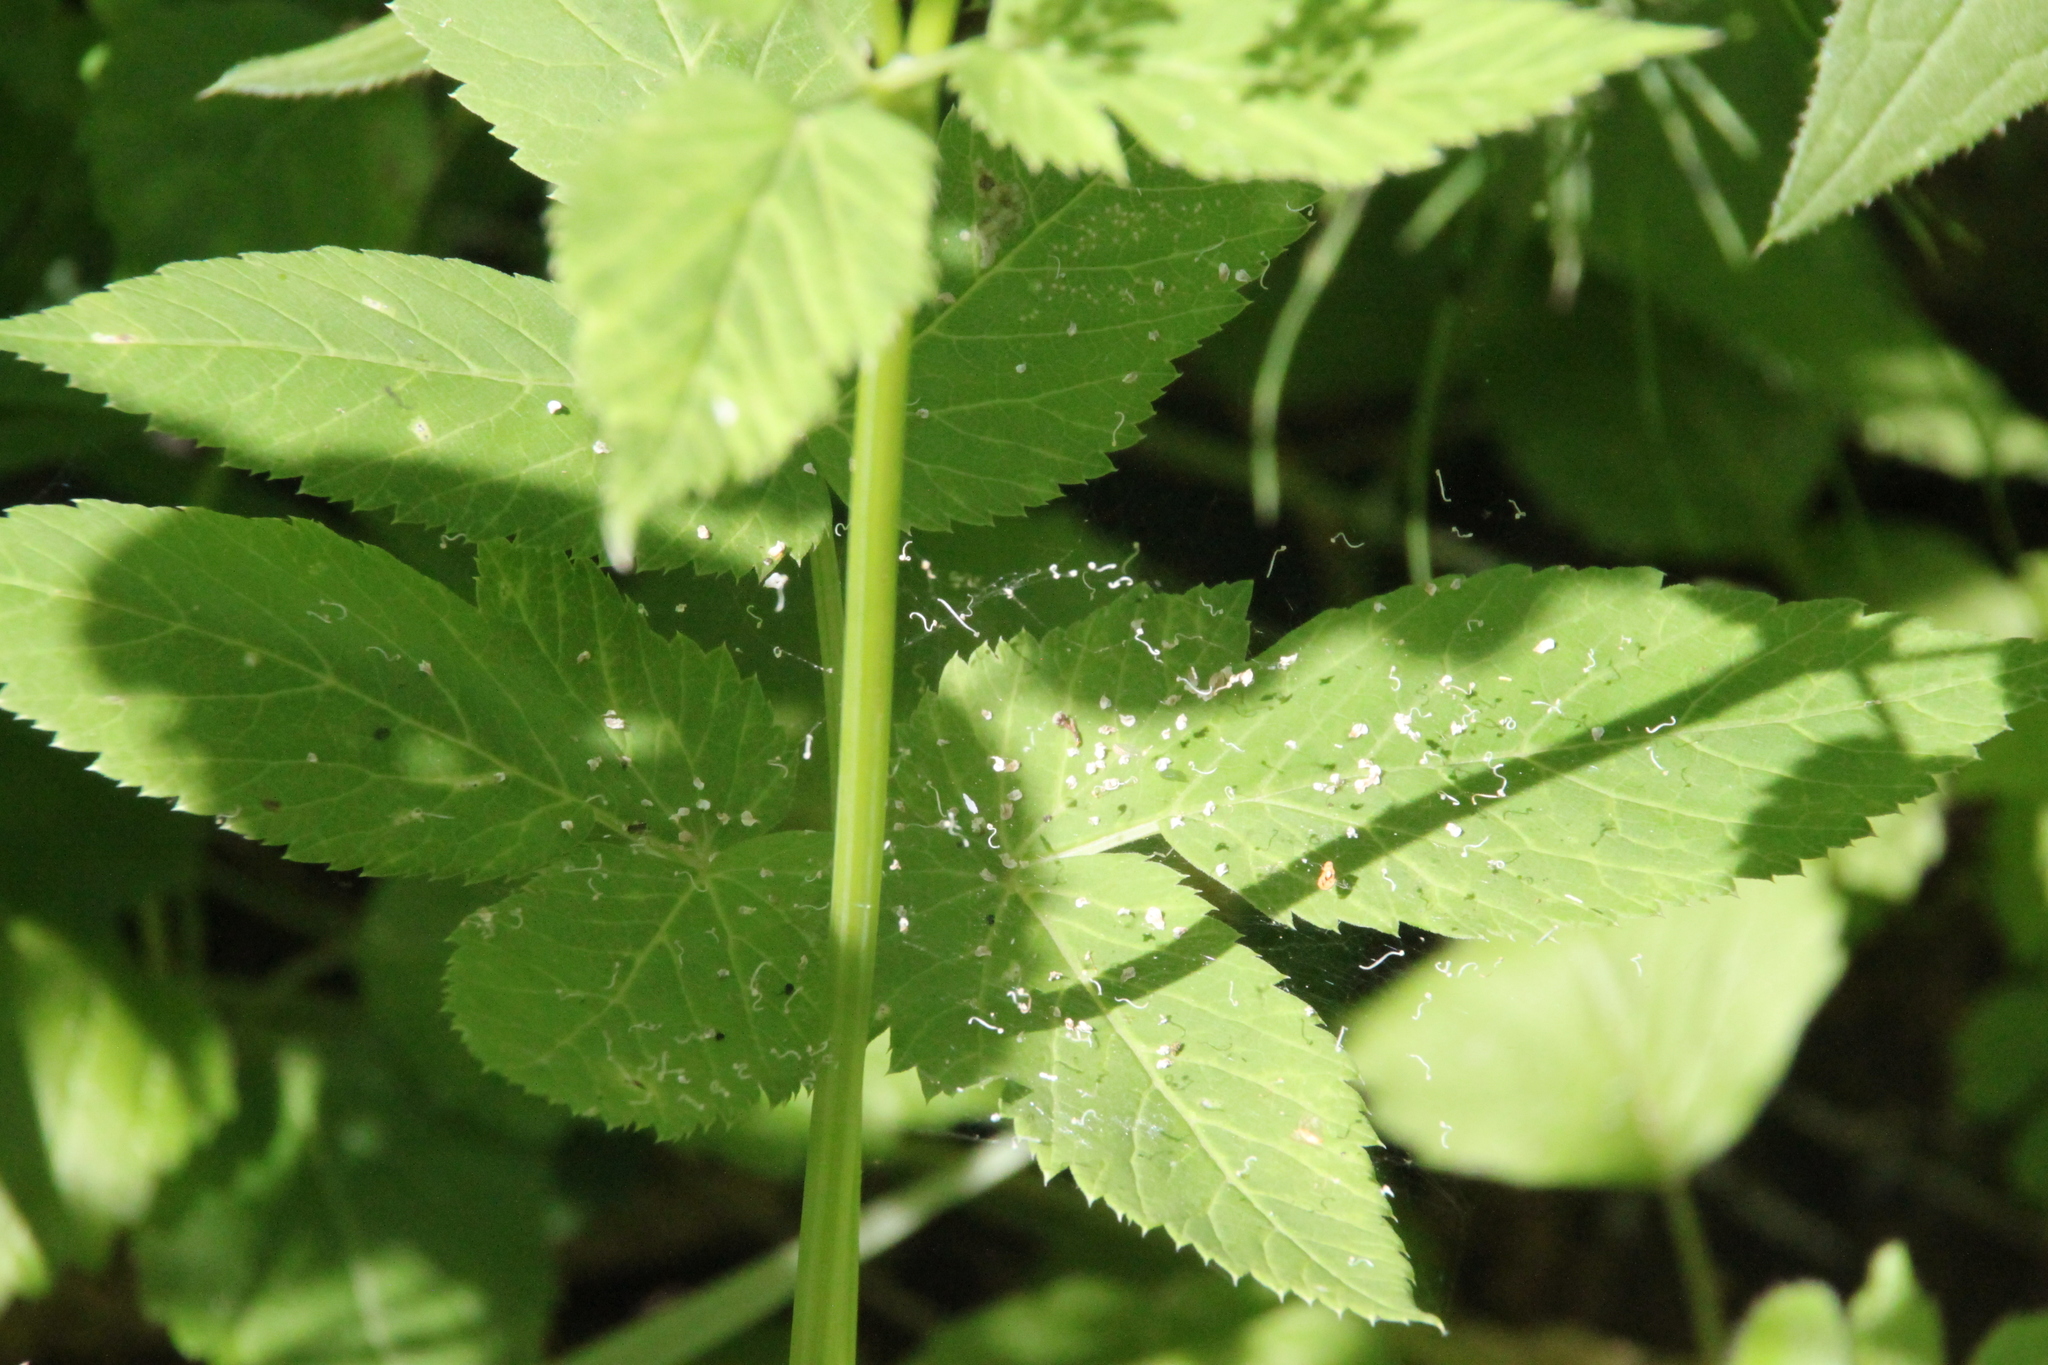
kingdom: Plantae
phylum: Tracheophyta
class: Magnoliopsida
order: Apiales
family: Apiaceae
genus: Aegopodium
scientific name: Aegopodium podagraria
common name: Ground-elder
